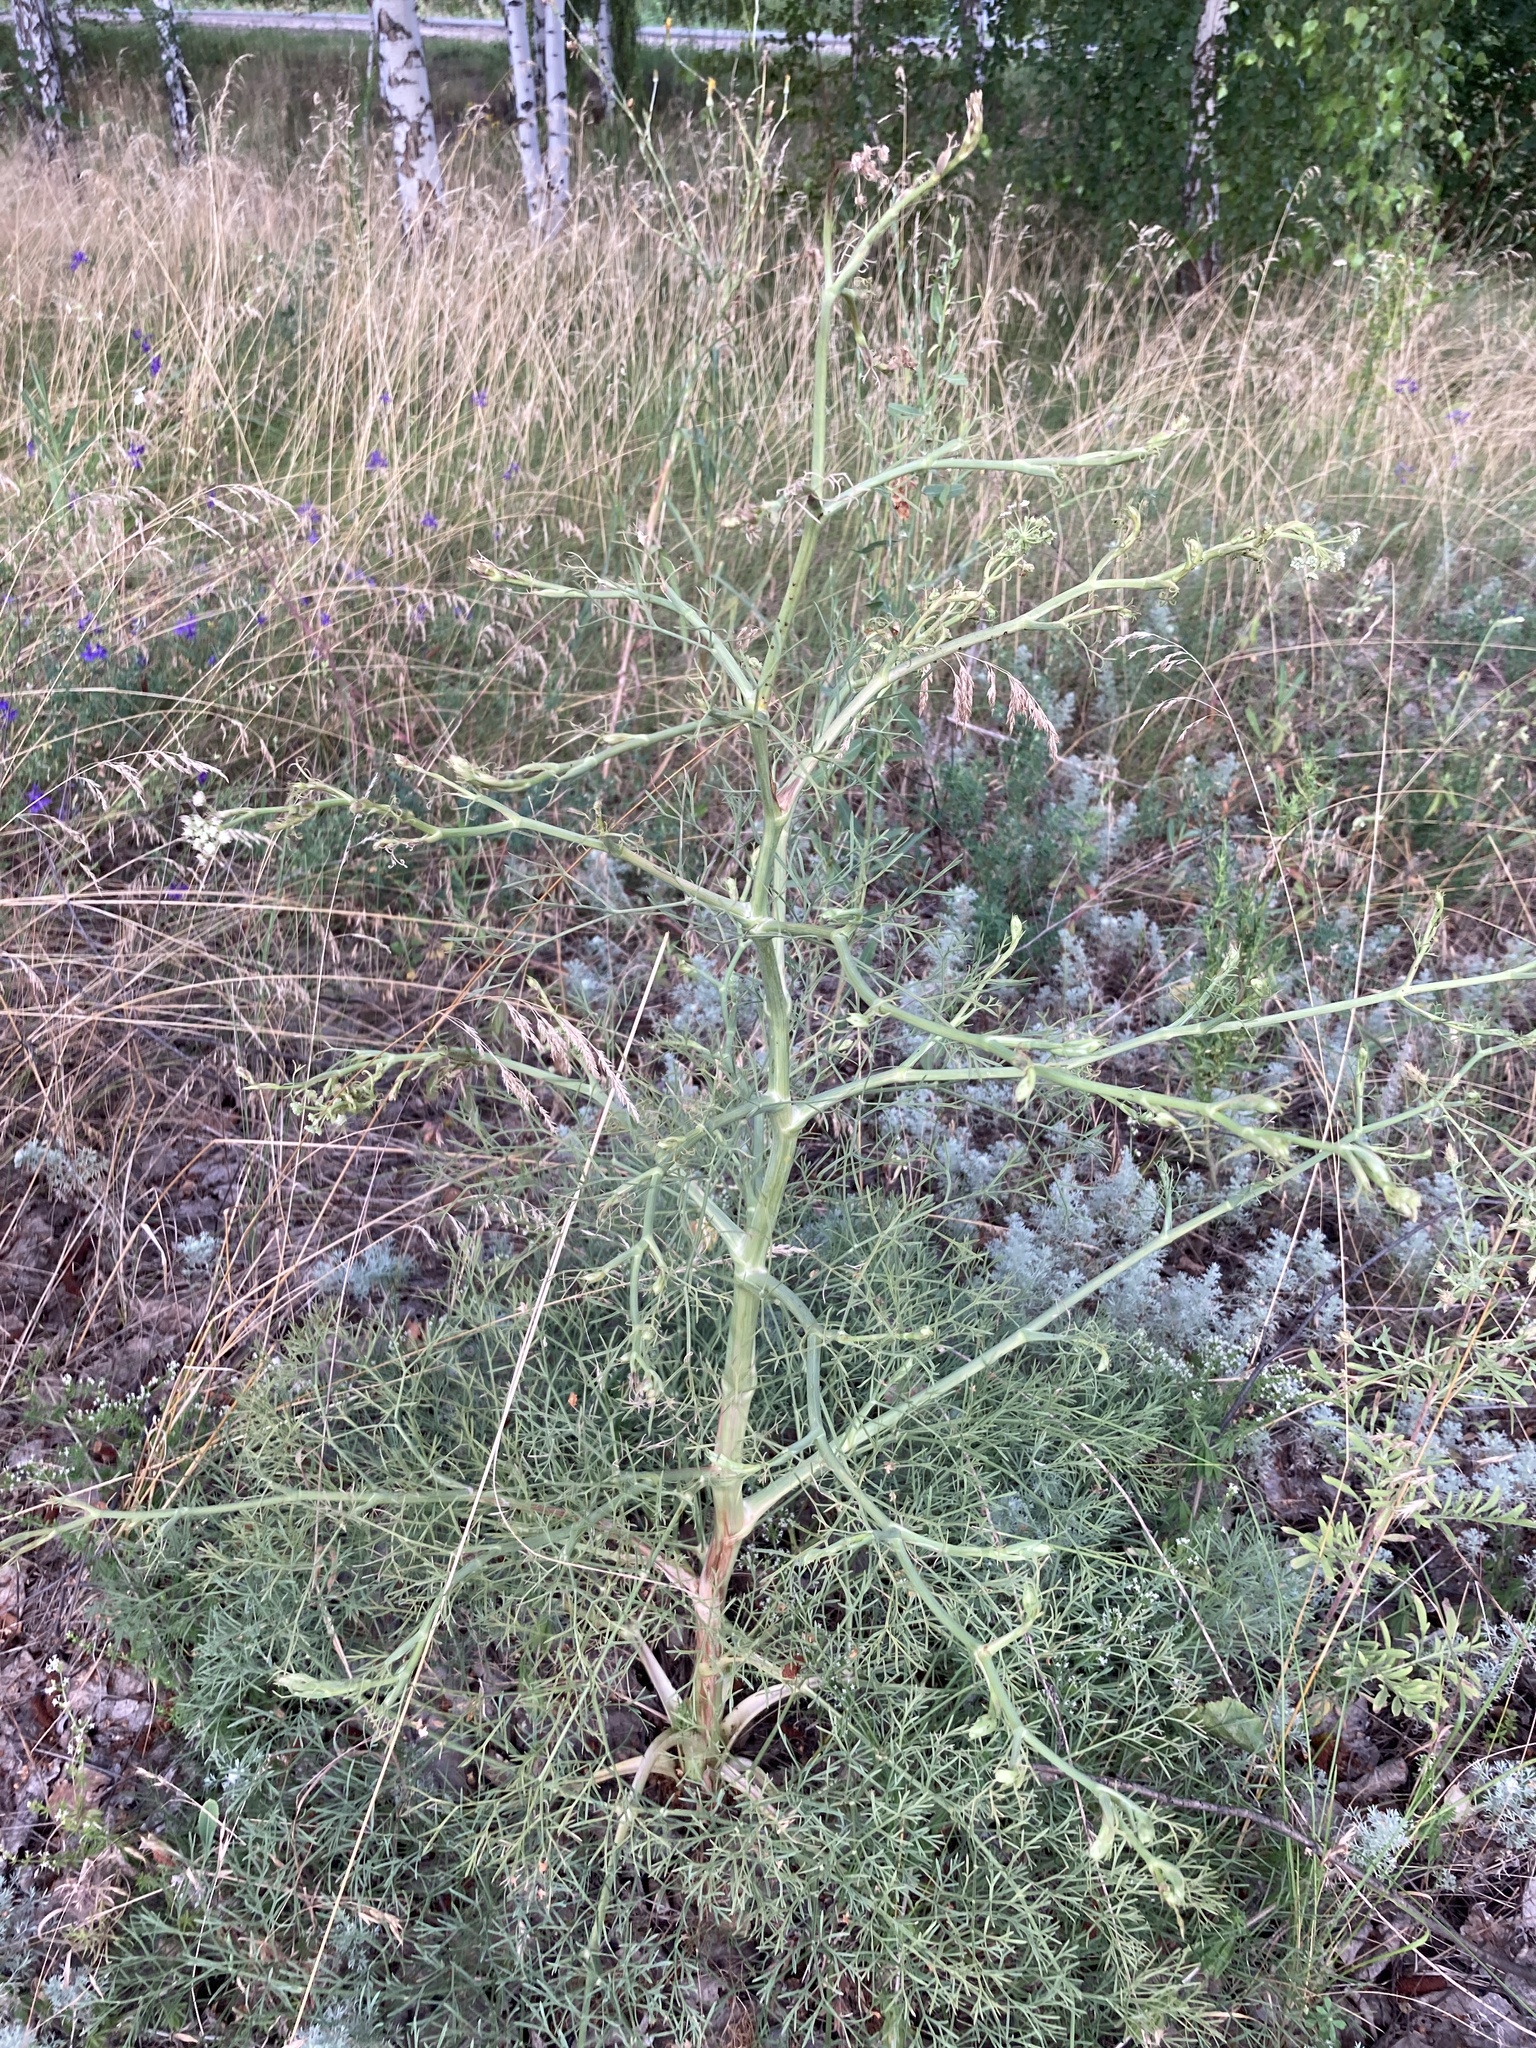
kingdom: Plantae
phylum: Tracheophyta
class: Magnoliopsida
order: Apiales
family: Apiaceae
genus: Seseli
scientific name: Seseli arenarium
